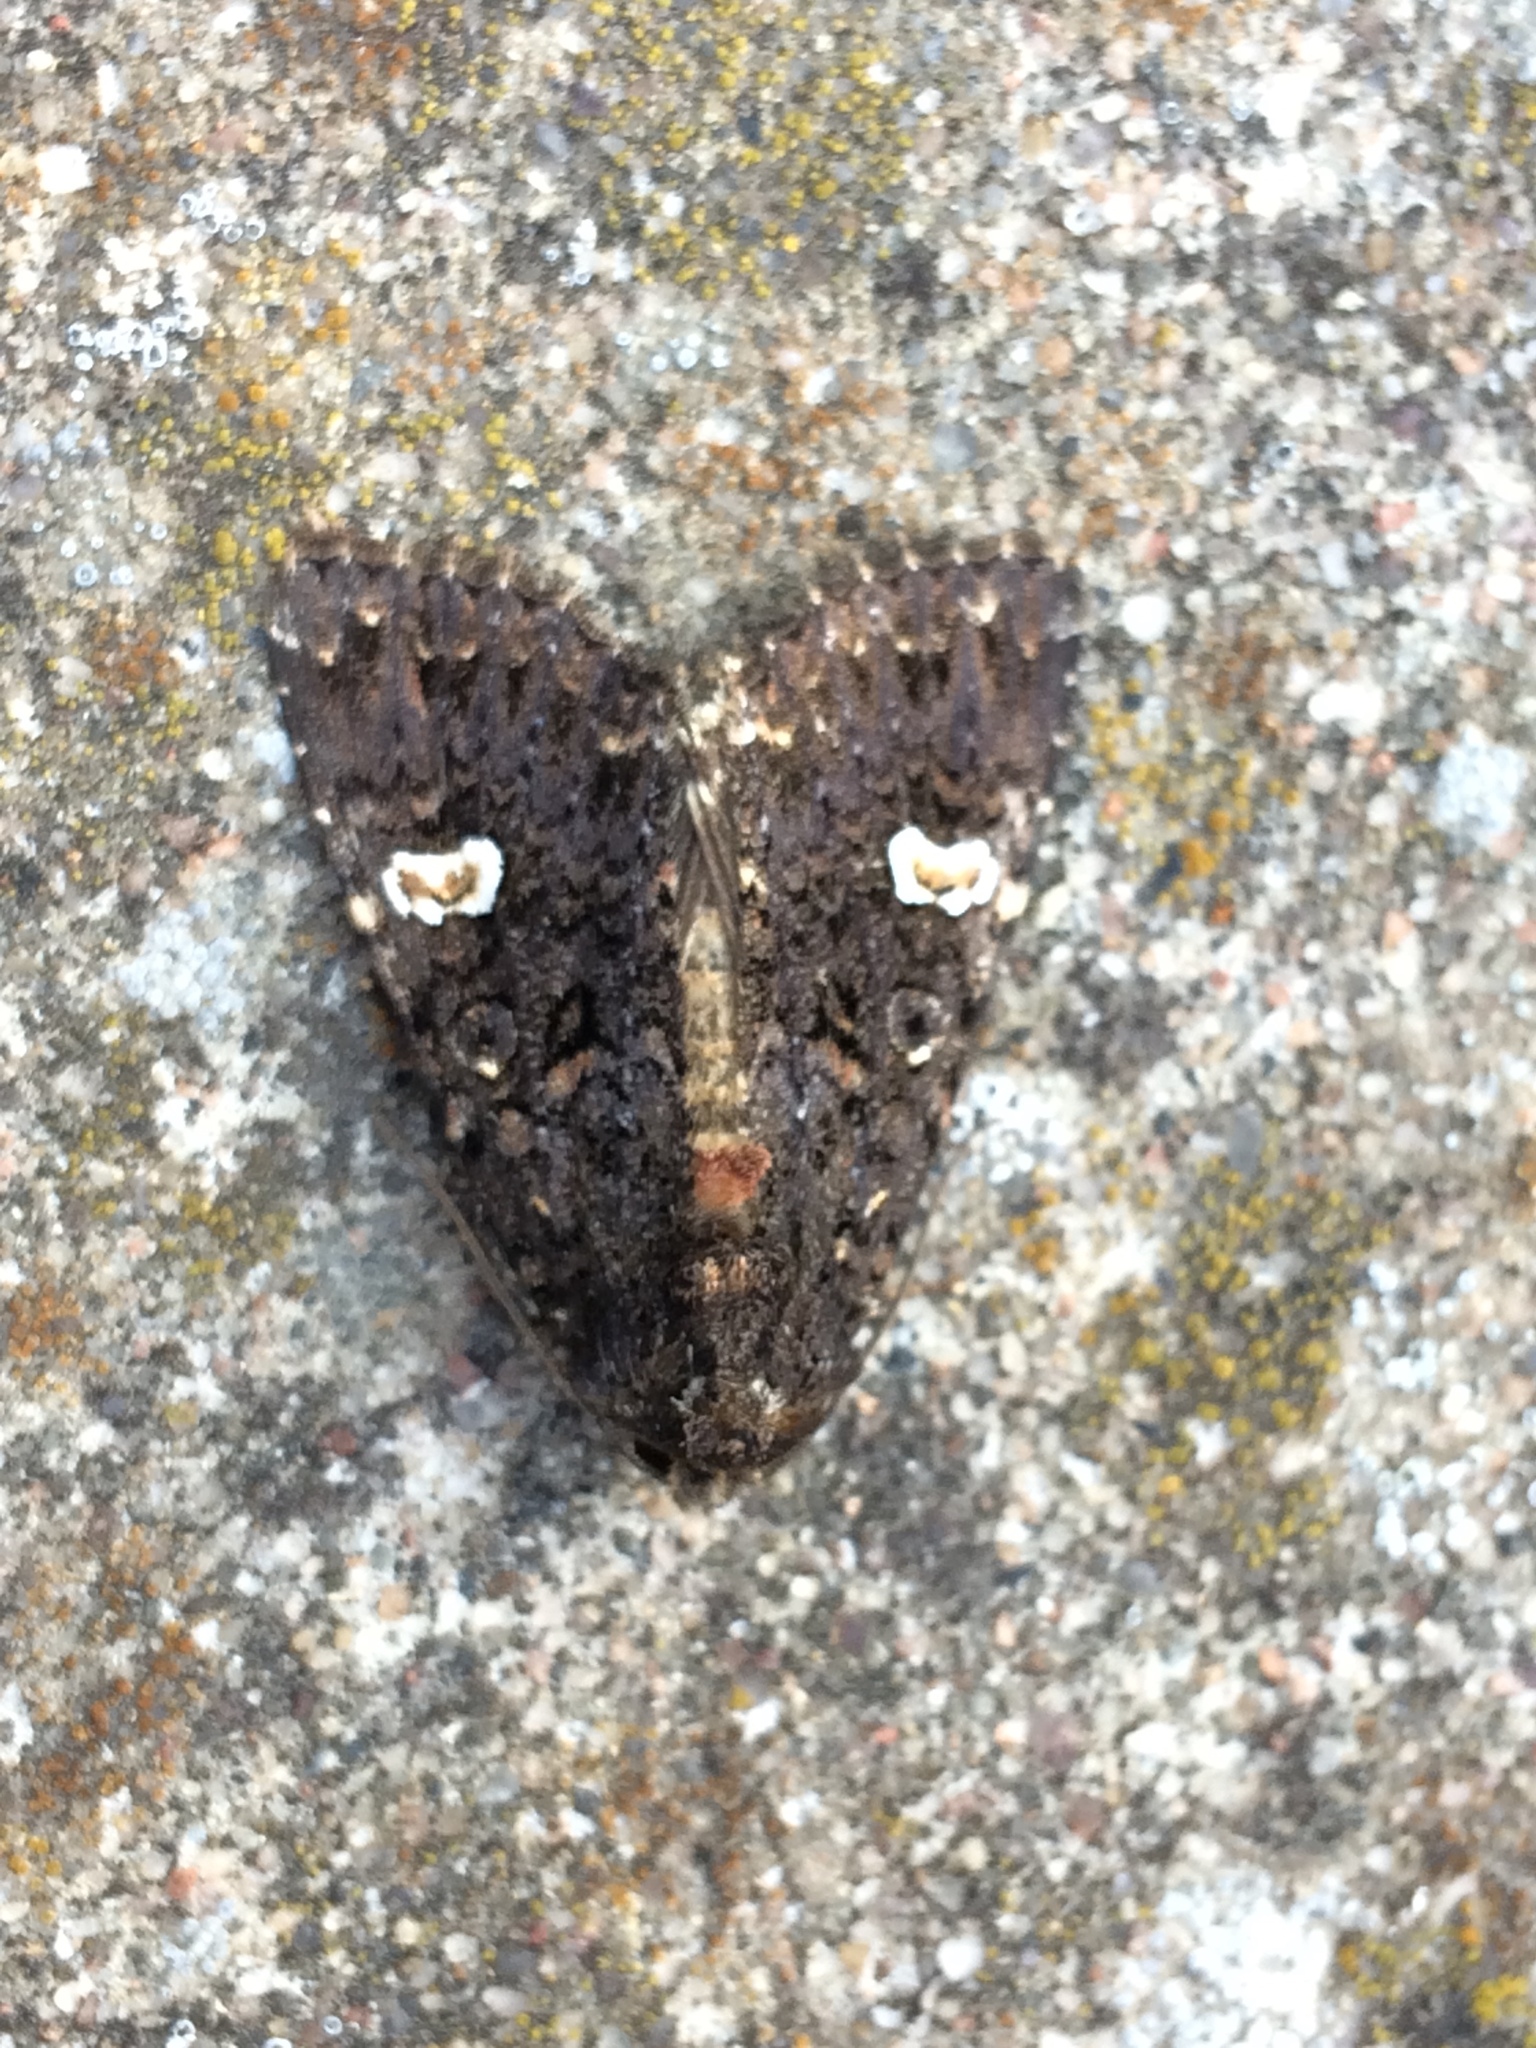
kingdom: Animalia
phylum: Arthropoda
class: Insecta
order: Lepidoptera
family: Noctuidae
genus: Melanchra
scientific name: Melanchra persicariae
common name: Dot moth
